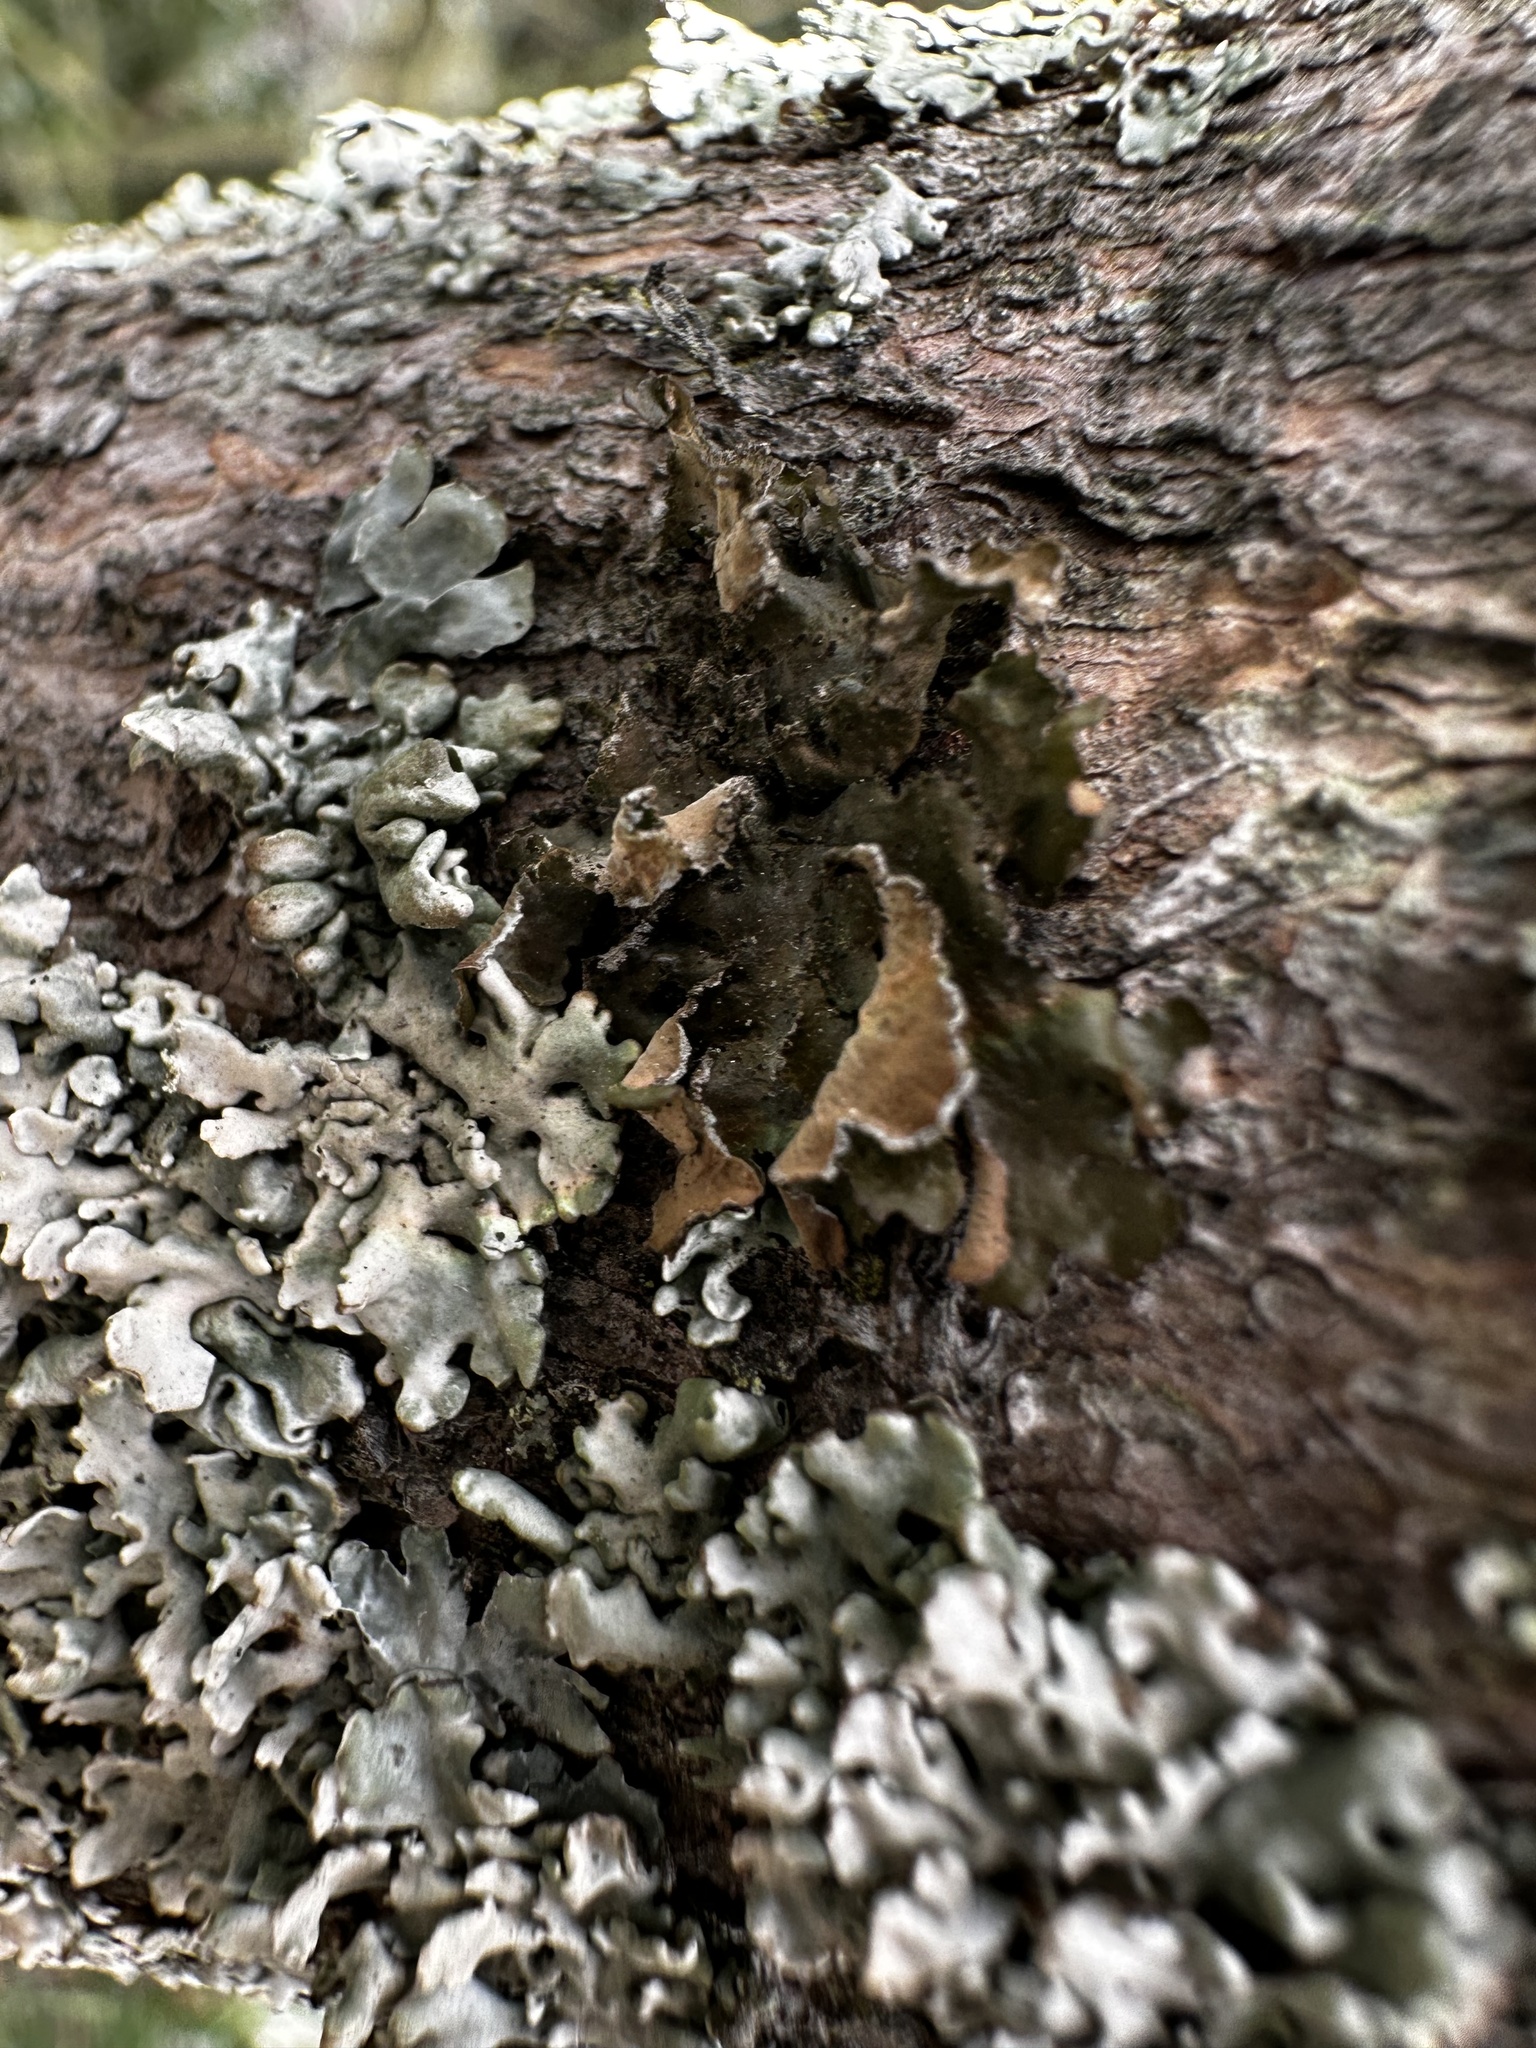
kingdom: Fungi
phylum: Ascomycota
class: Lecanoromycetes
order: Lecanorales
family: Parmeliaceae
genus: Nephromopsis
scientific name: Nephromopsis chlorophylla
